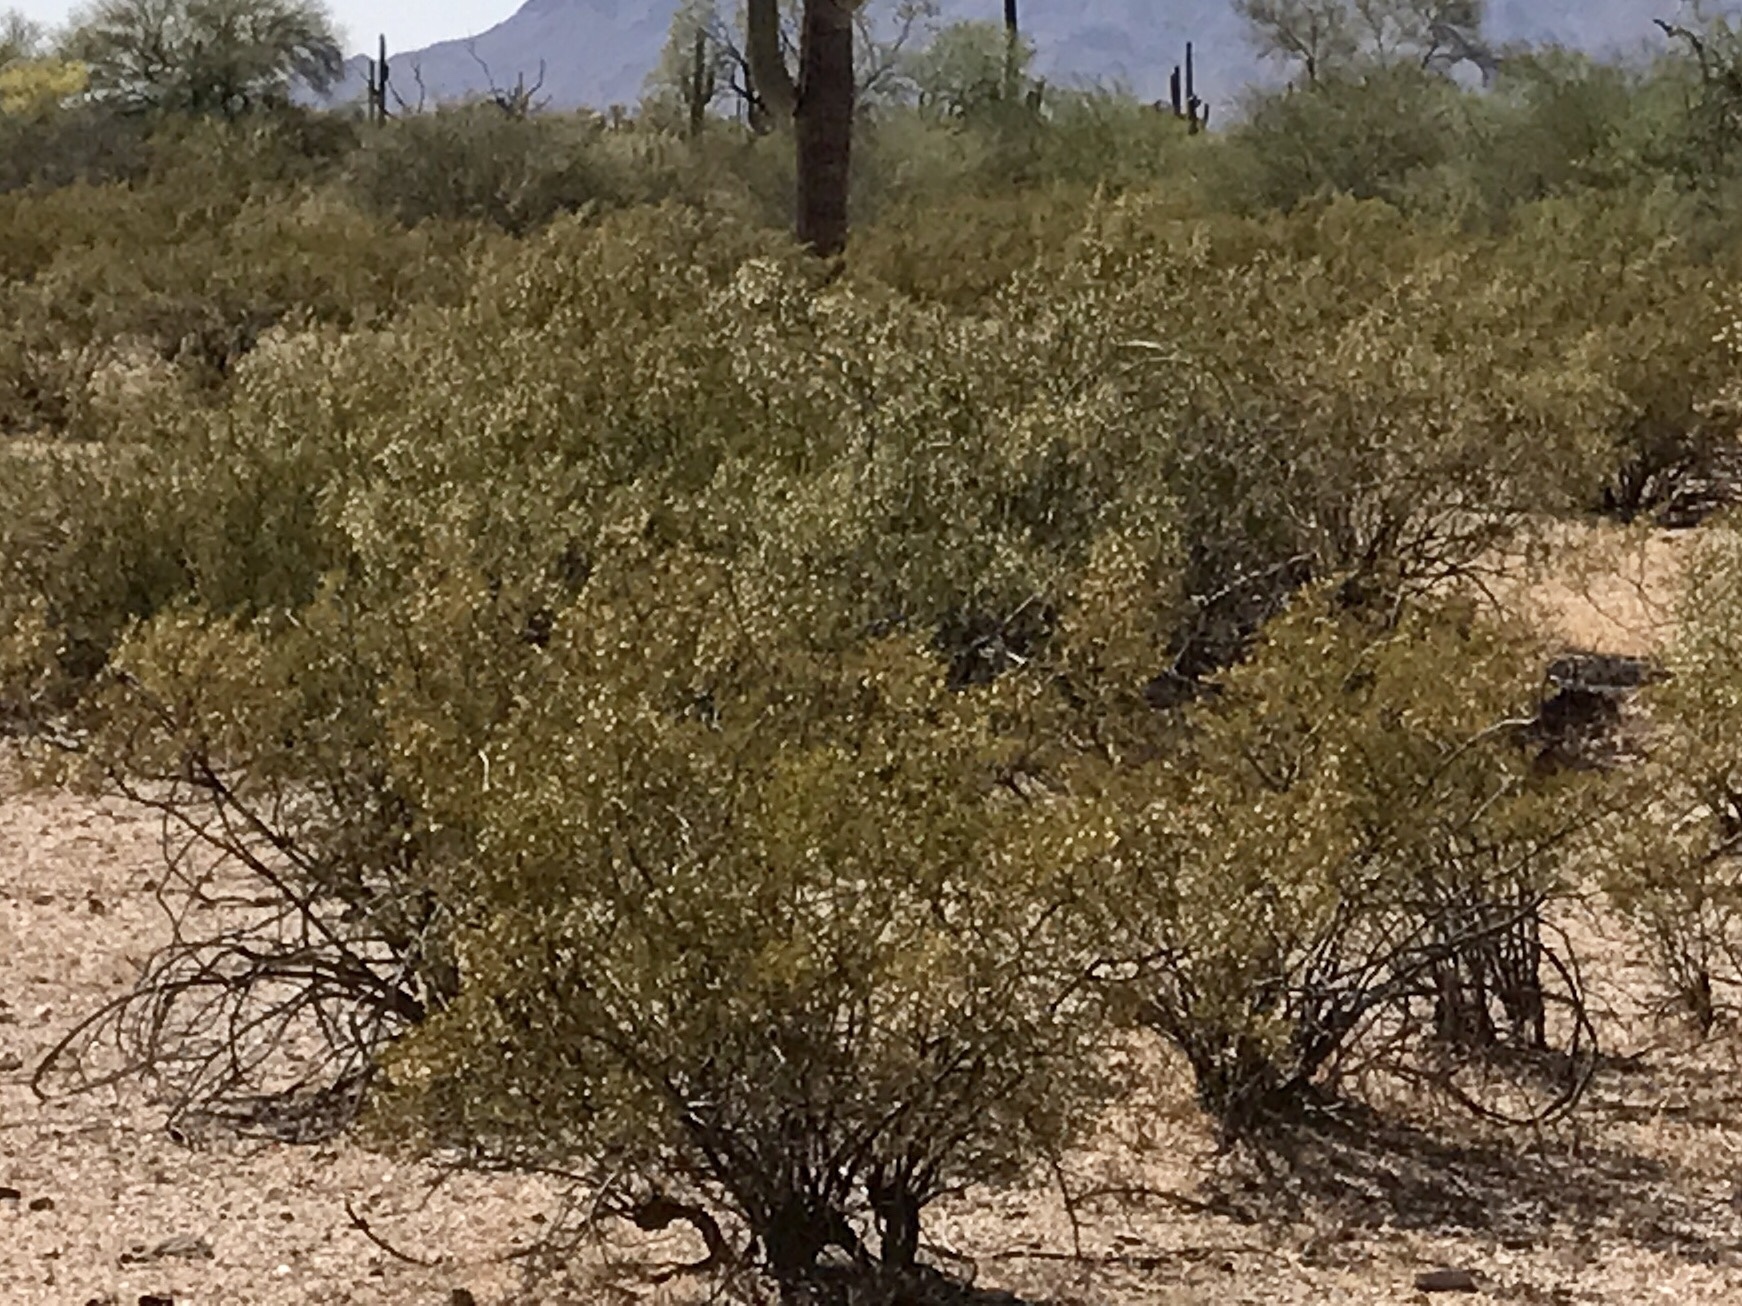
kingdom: Plantae
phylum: Tracheophyta
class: Magnoliopsida
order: Zygophyllales
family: Zygophyllaceae
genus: Larrea
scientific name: Larrea tridentata
